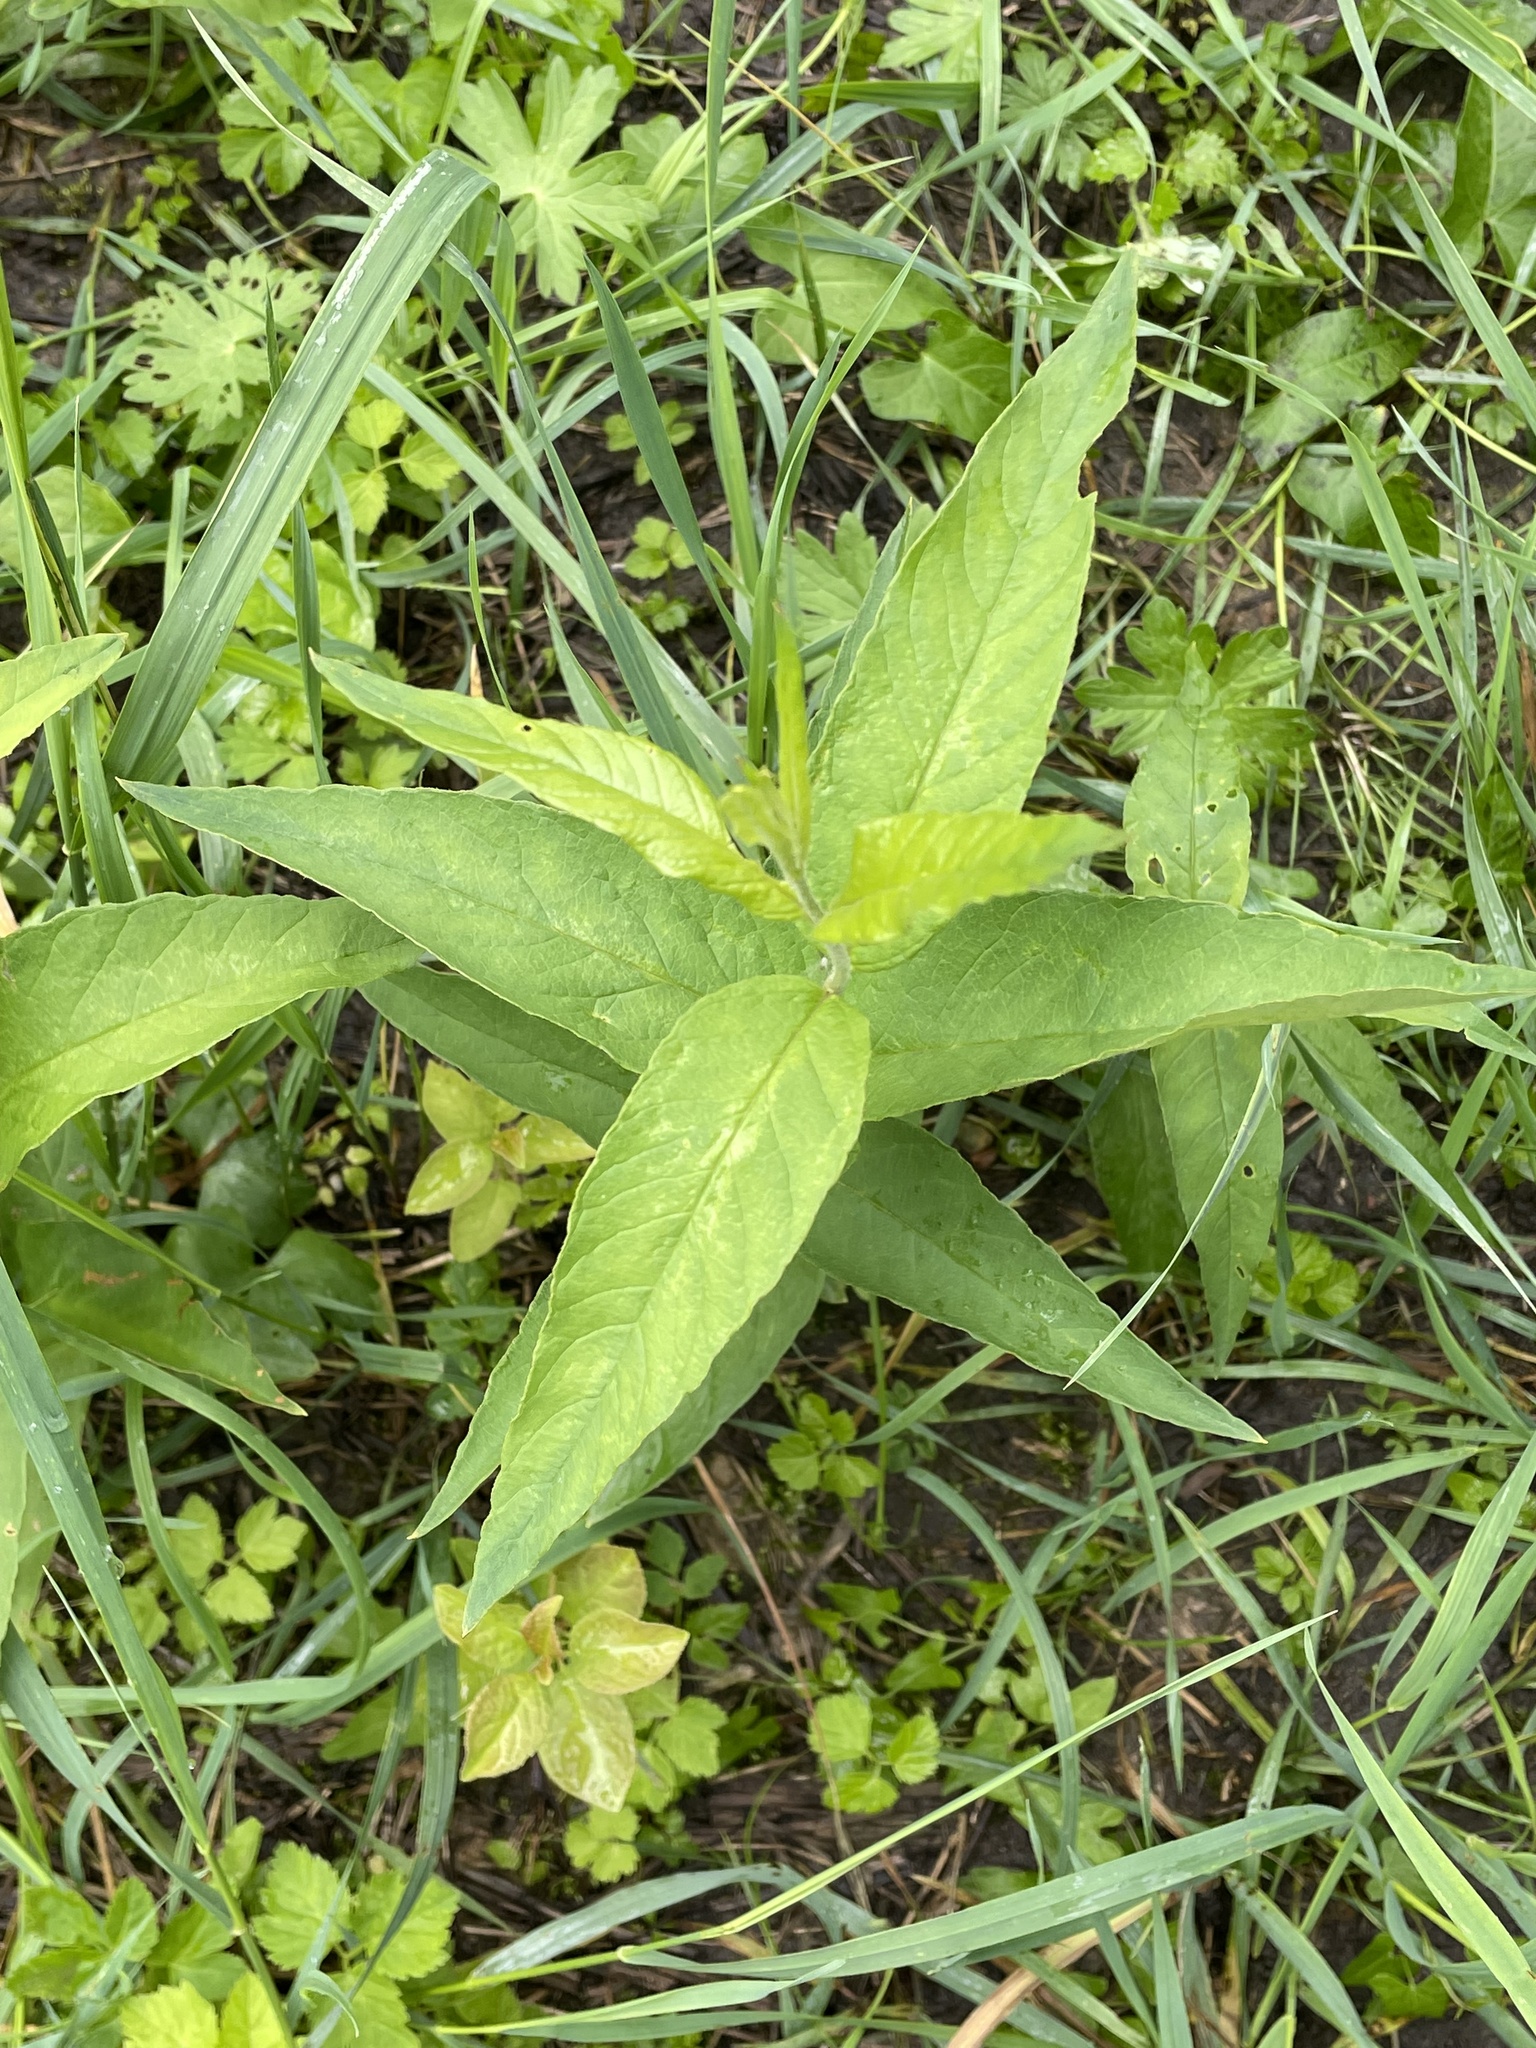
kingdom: Plantae
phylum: Tracheophyta
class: Magnoliopsida
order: Ericales
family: Primulaceae
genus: Lysimachia
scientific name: Lysimachia vulgaris
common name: Yellow loosestrife
